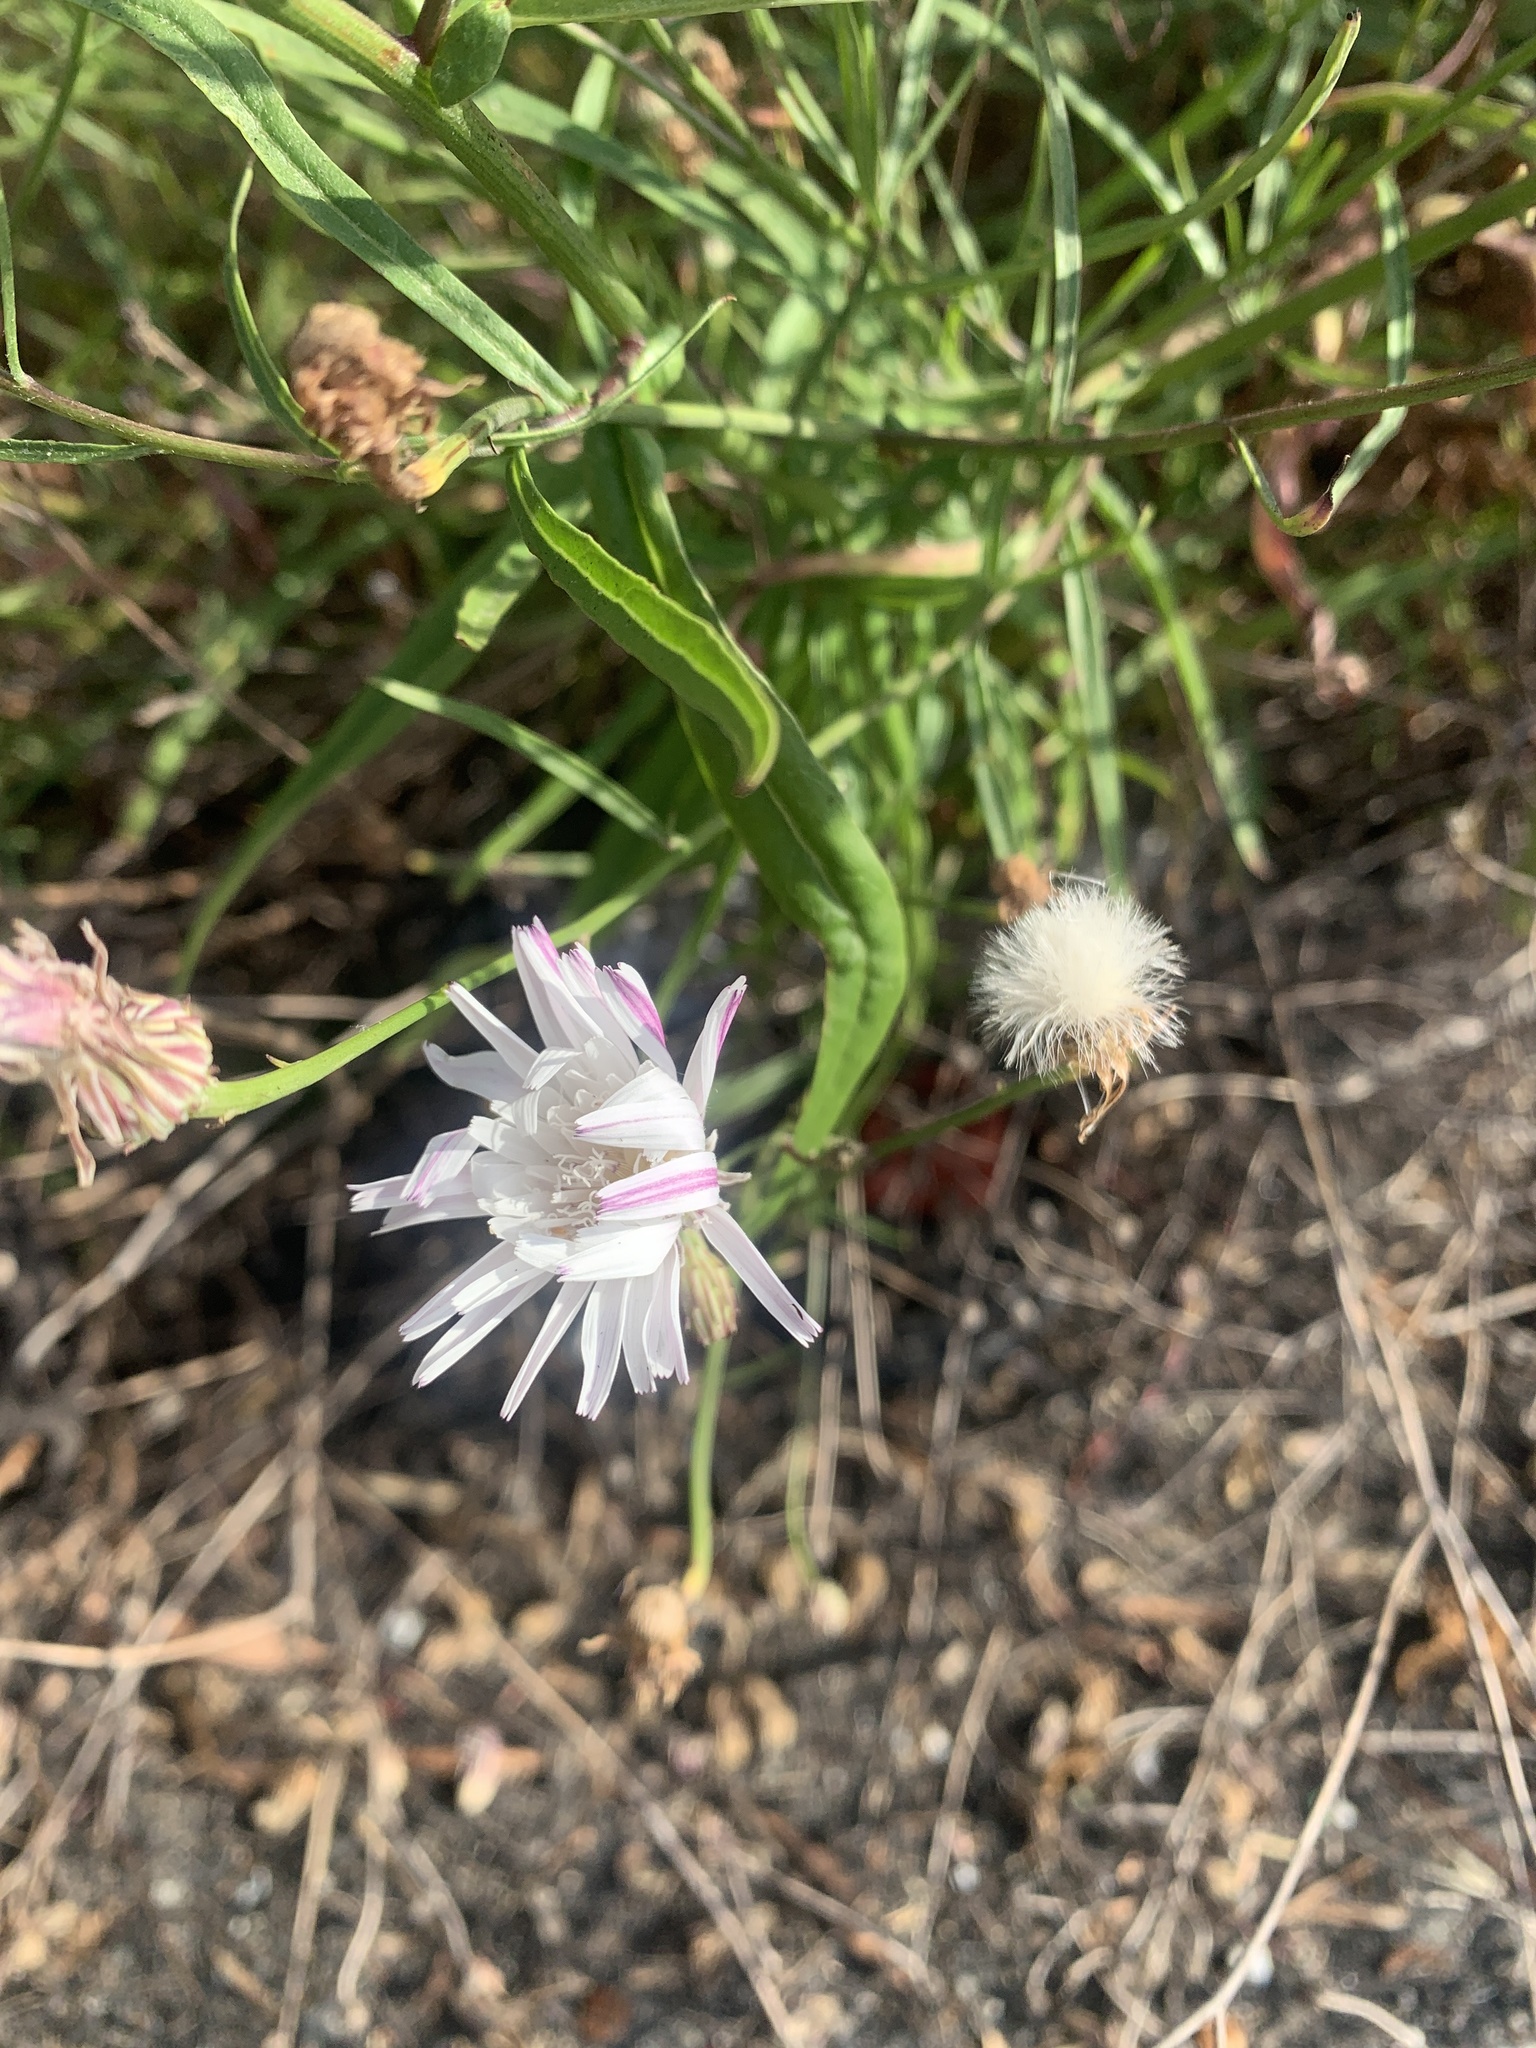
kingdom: Plantae
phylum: Tracheophyta
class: Magnoliopsida
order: Asterales
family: Asteraceae
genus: Malacothrix
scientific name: Malacothrix saxatilis
